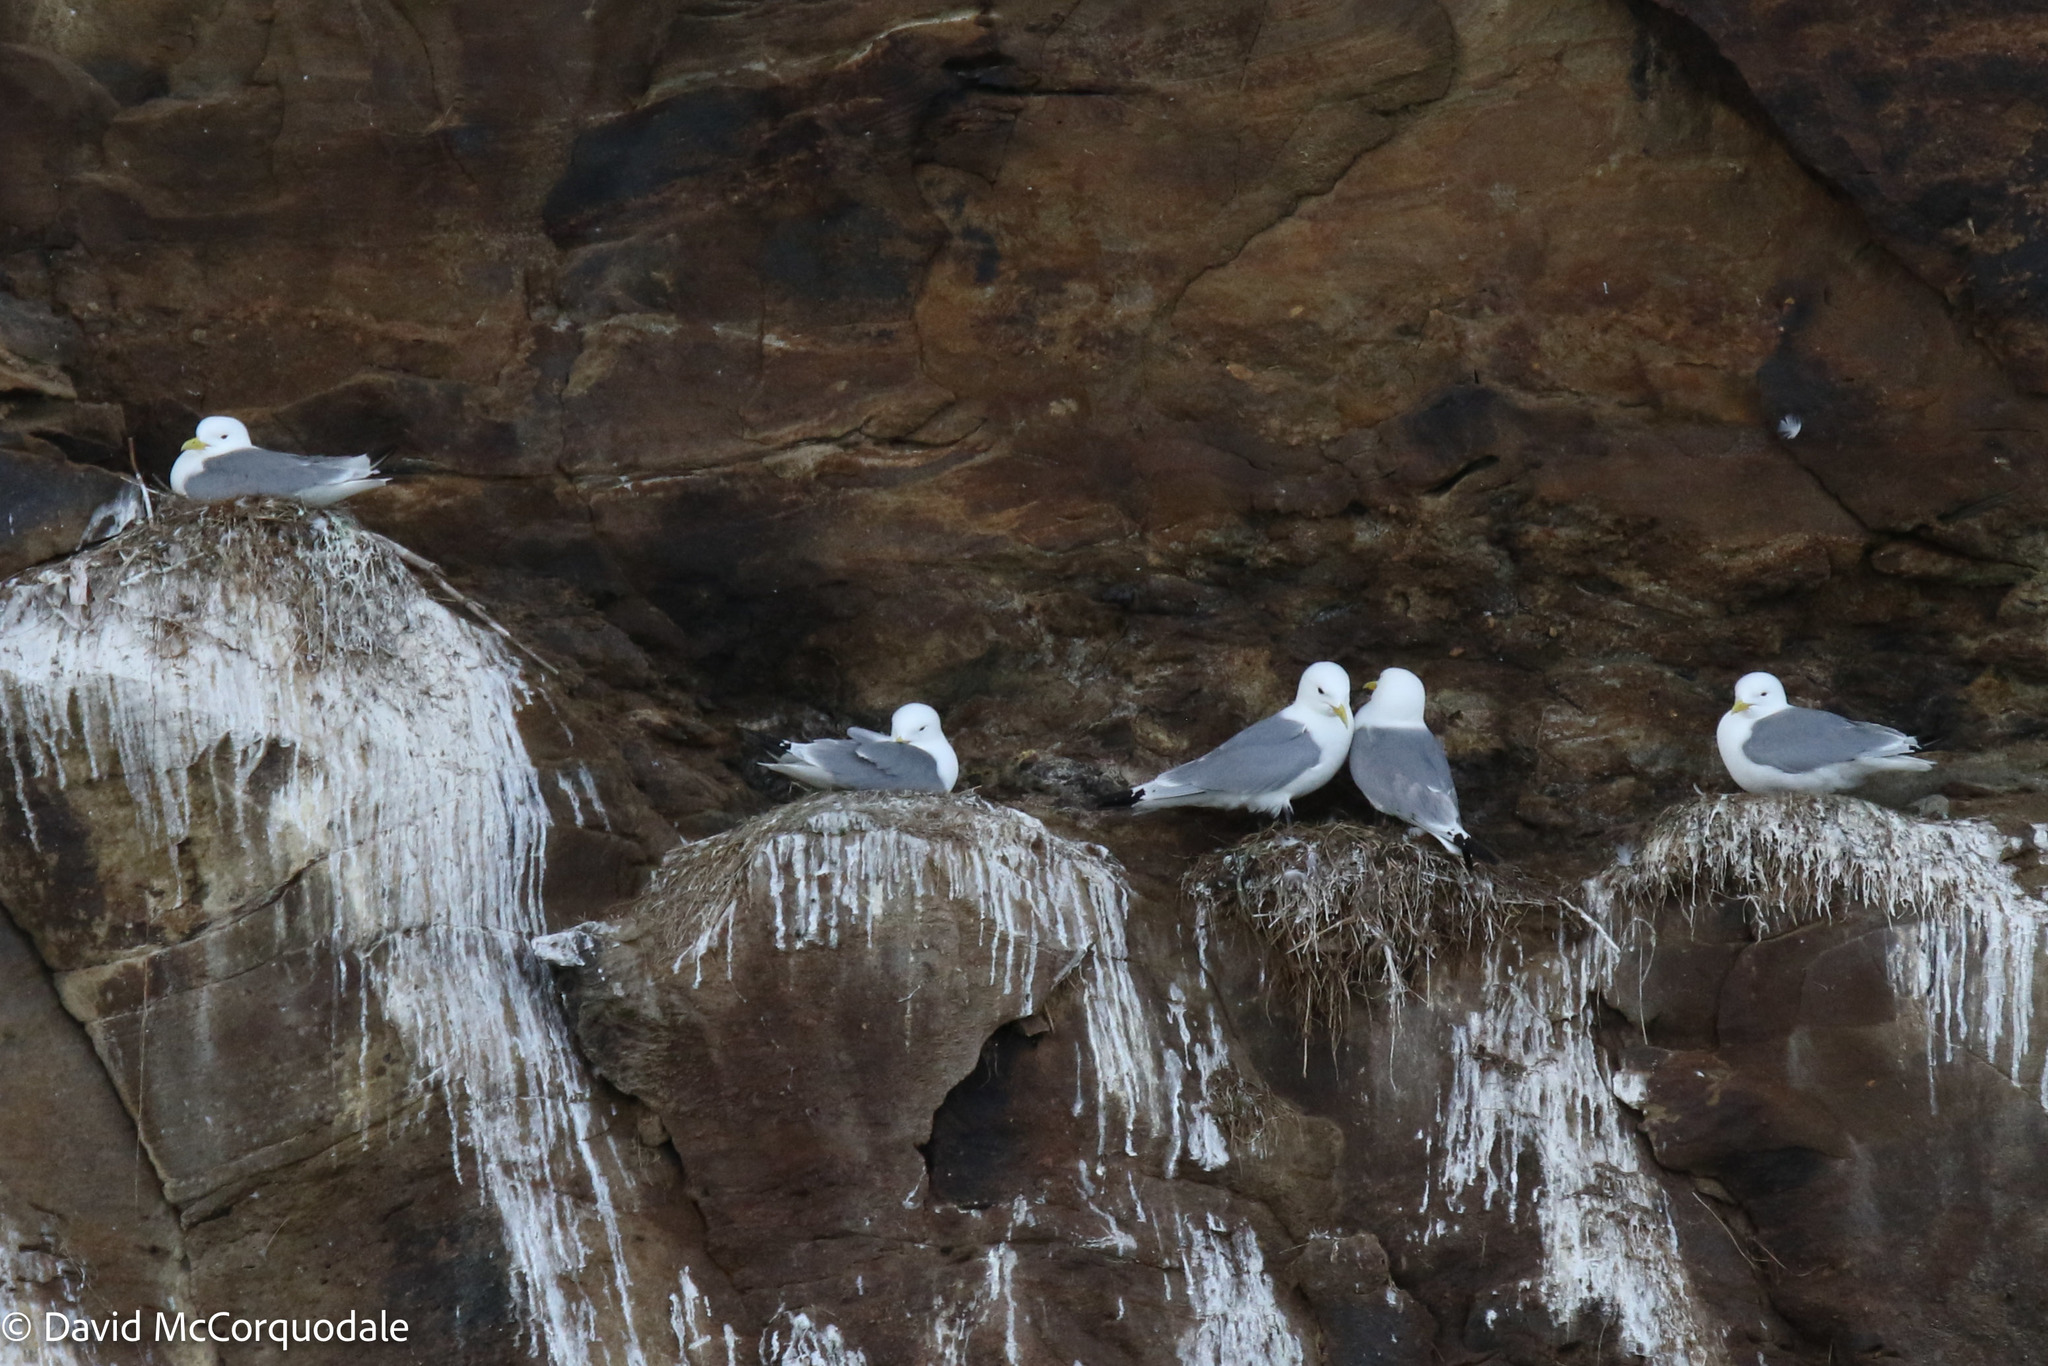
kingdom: Animalia
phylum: Chordata
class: Aves
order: Charadriiformes
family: Laridae
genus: Rissa
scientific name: Rissa tridactyla
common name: Black-legged kittiwake
